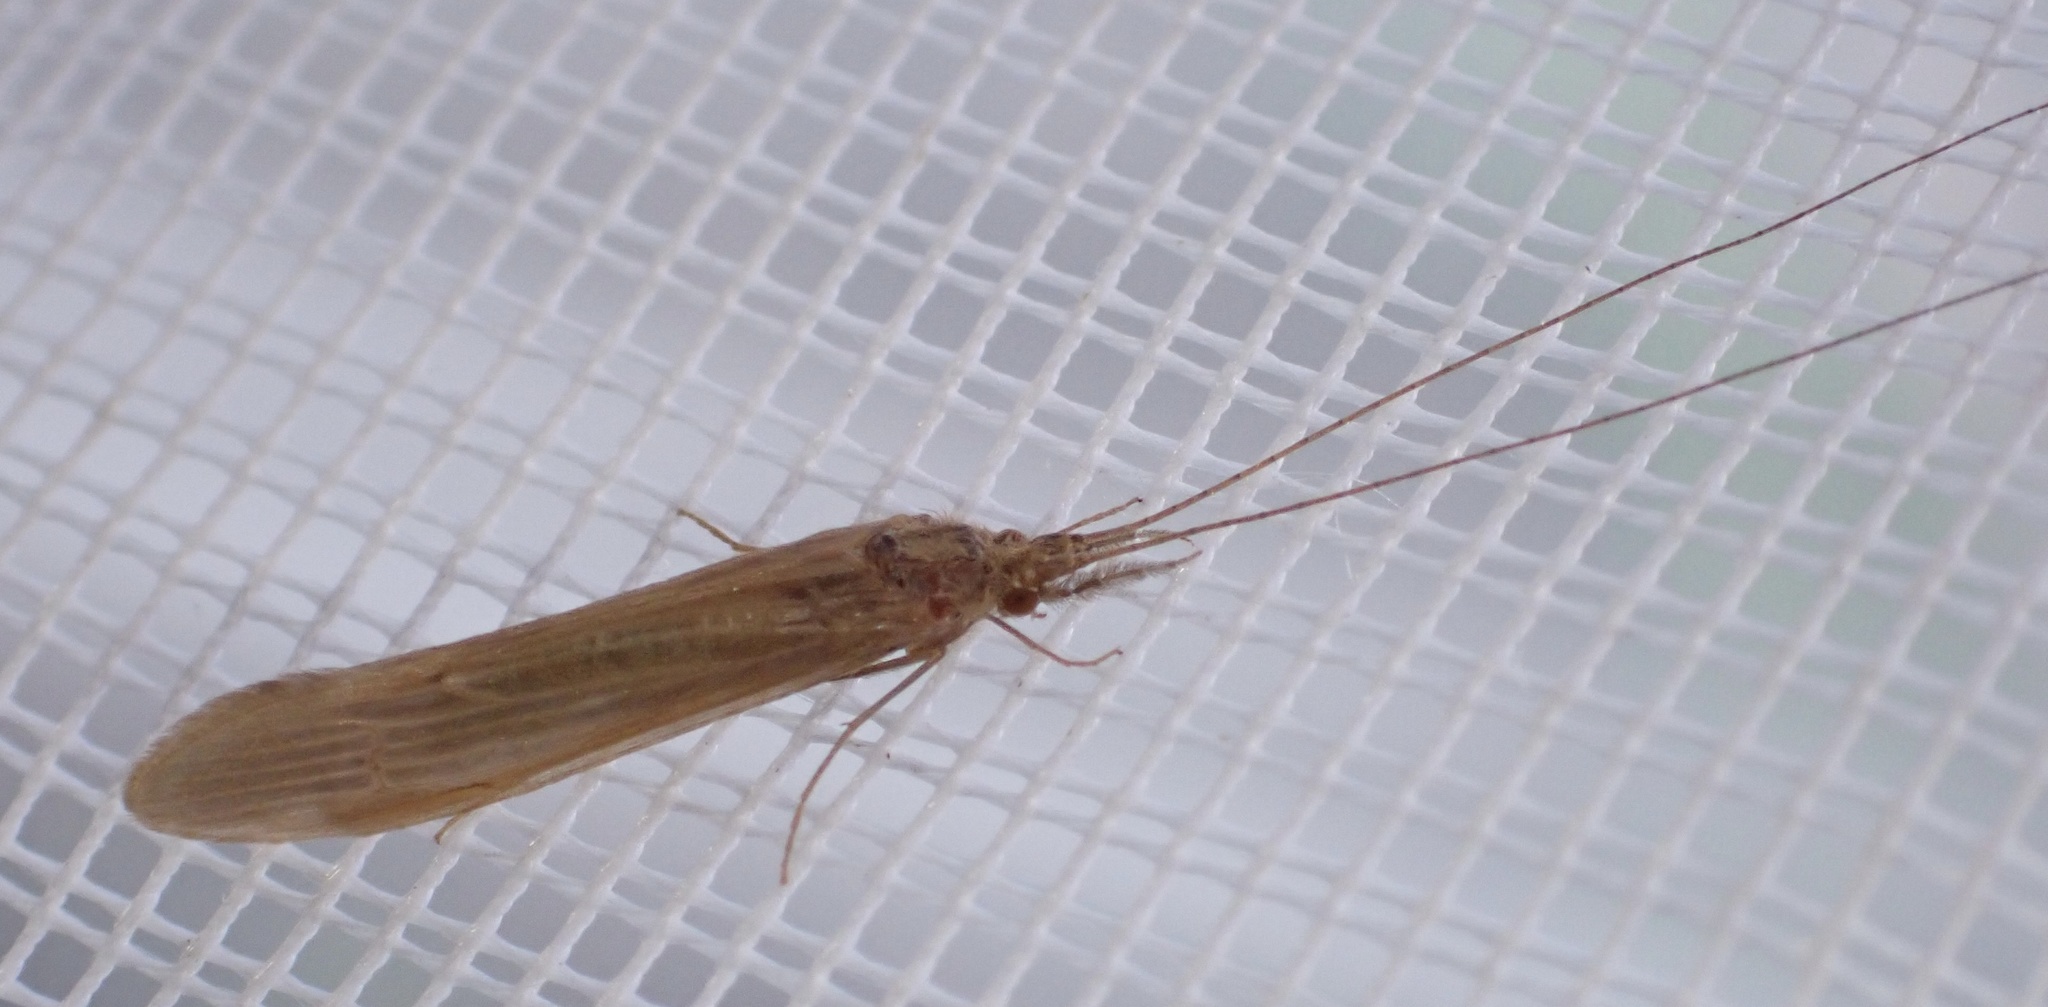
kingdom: Animalia
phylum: Arthropoda
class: Insecta
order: Trichoptera
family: Leptoceridae
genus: Oecetis
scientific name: Oecetis ochracea
